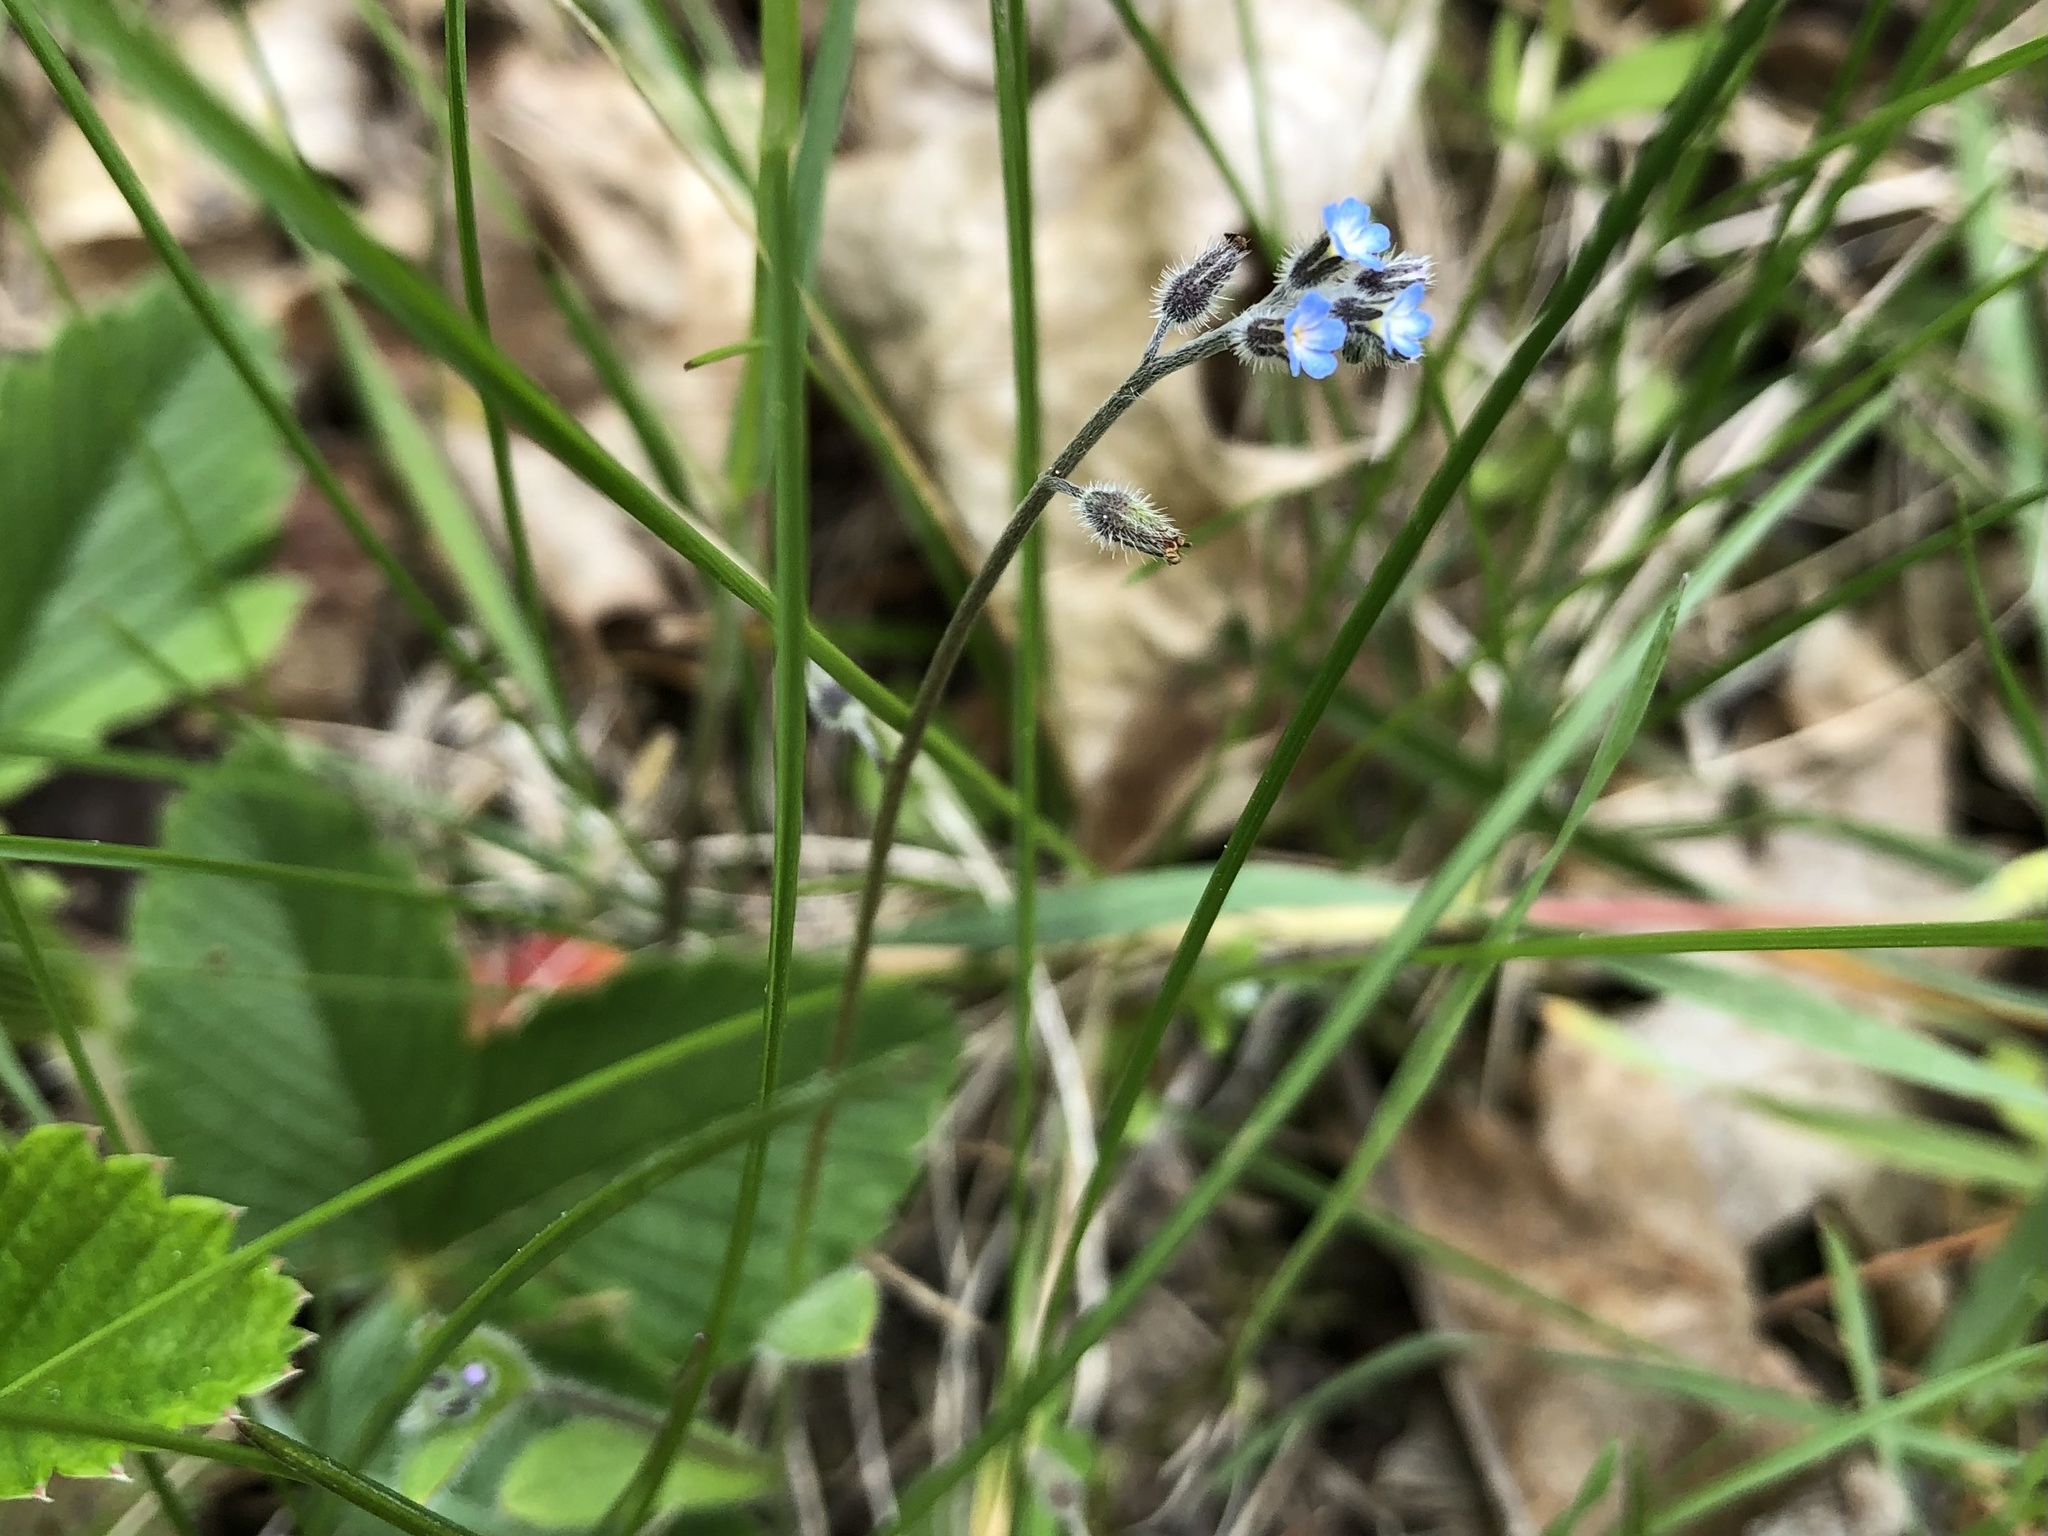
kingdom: Plantae
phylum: Tracheophyta
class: Magnoliopsida
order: Boraginales
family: Boraginaceae
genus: Myosotis
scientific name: Myosotis ramosissima
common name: Early forget-me-not
